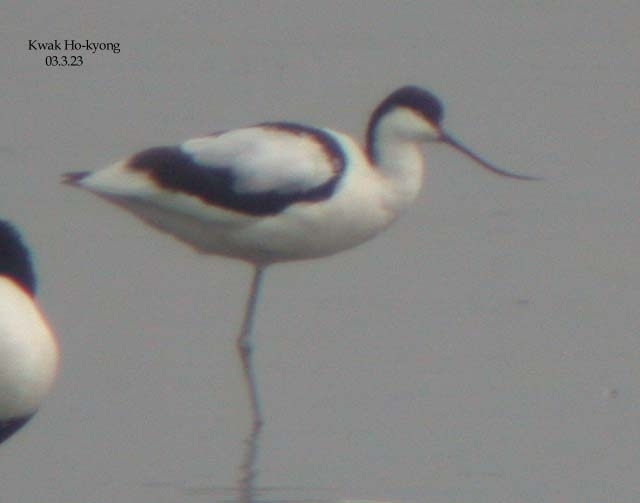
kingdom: Animalia
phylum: Chordata
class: Aves
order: Charadriiformes
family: Recurvirostridae
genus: Recurvirostra
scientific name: Recurvirostra avosetta
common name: Pied avocet
